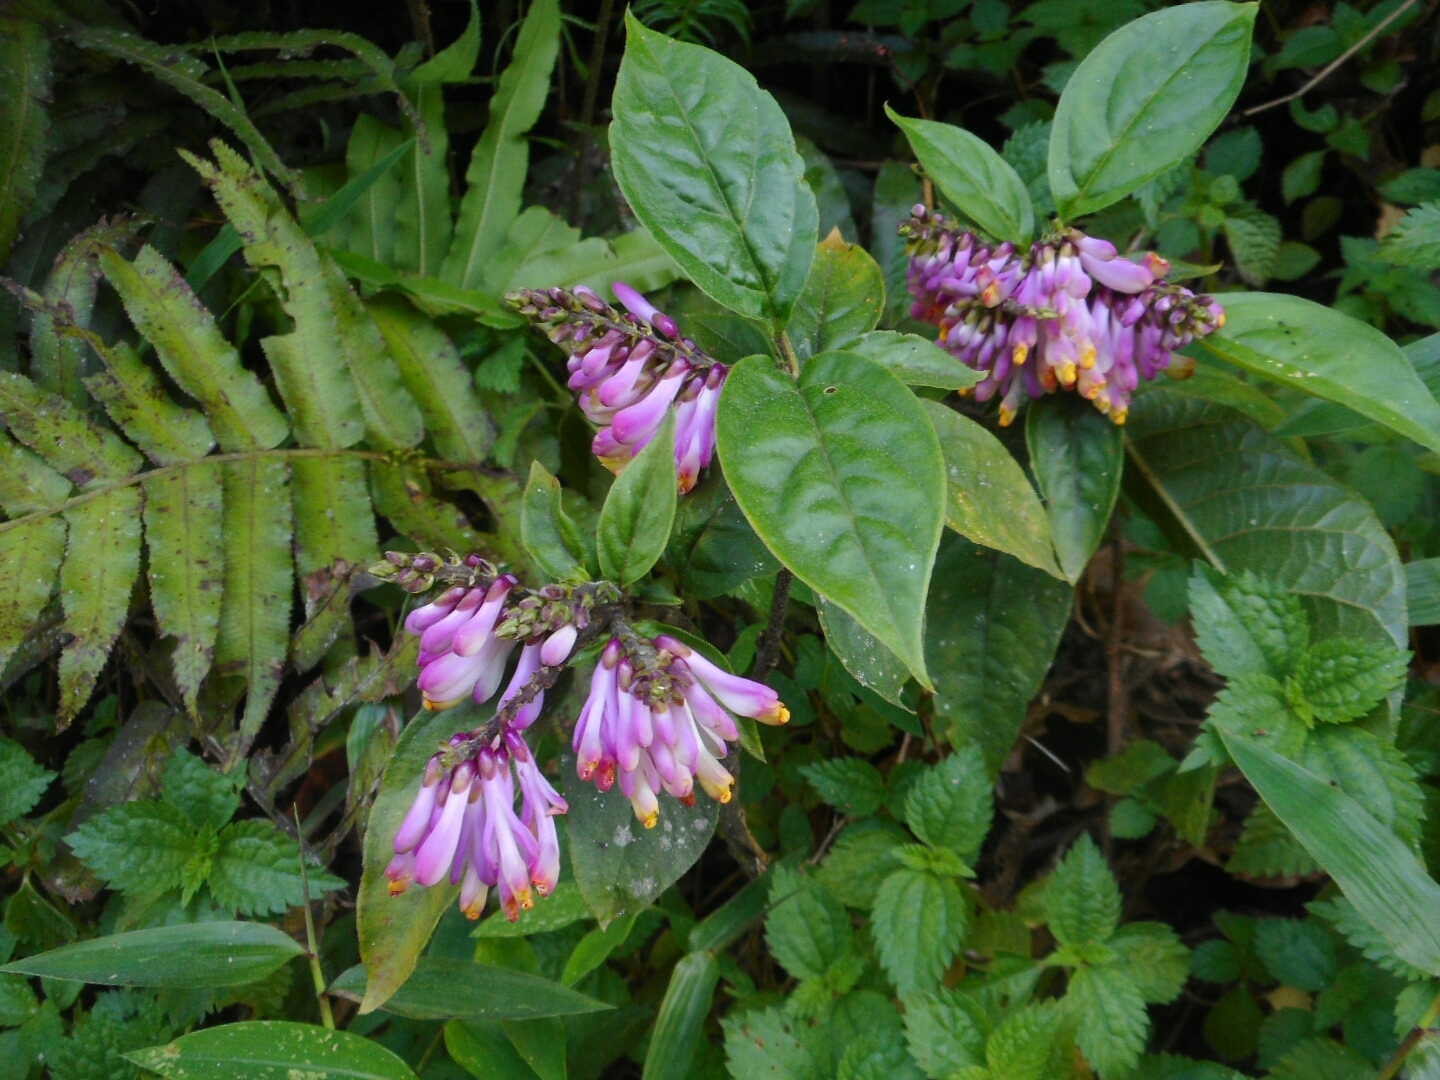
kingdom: Plantae
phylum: Tracheophyta
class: Magnoliopsida
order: Fabales
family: Polygalaceae
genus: Polygala
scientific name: Polygala karensium
